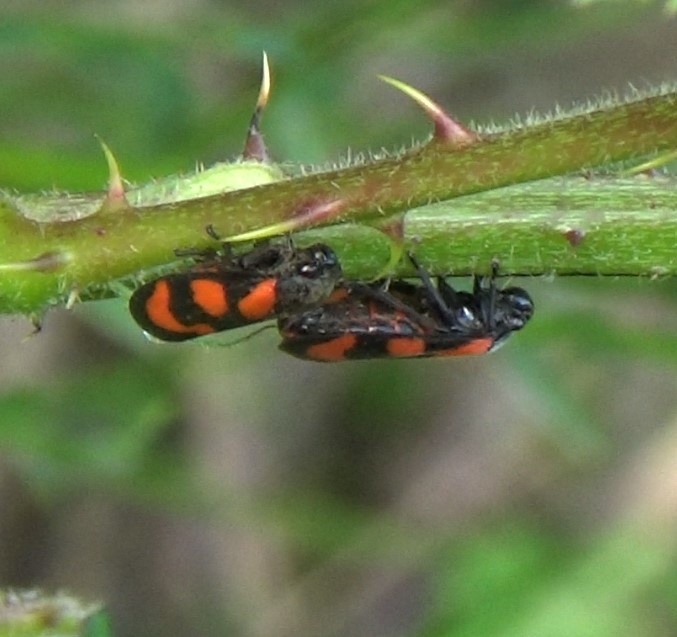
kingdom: Animalia
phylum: Arthropoda
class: Insecta
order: Hemiptera
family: Cercopidae
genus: Cercopis
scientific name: Cercopis vulnerata
